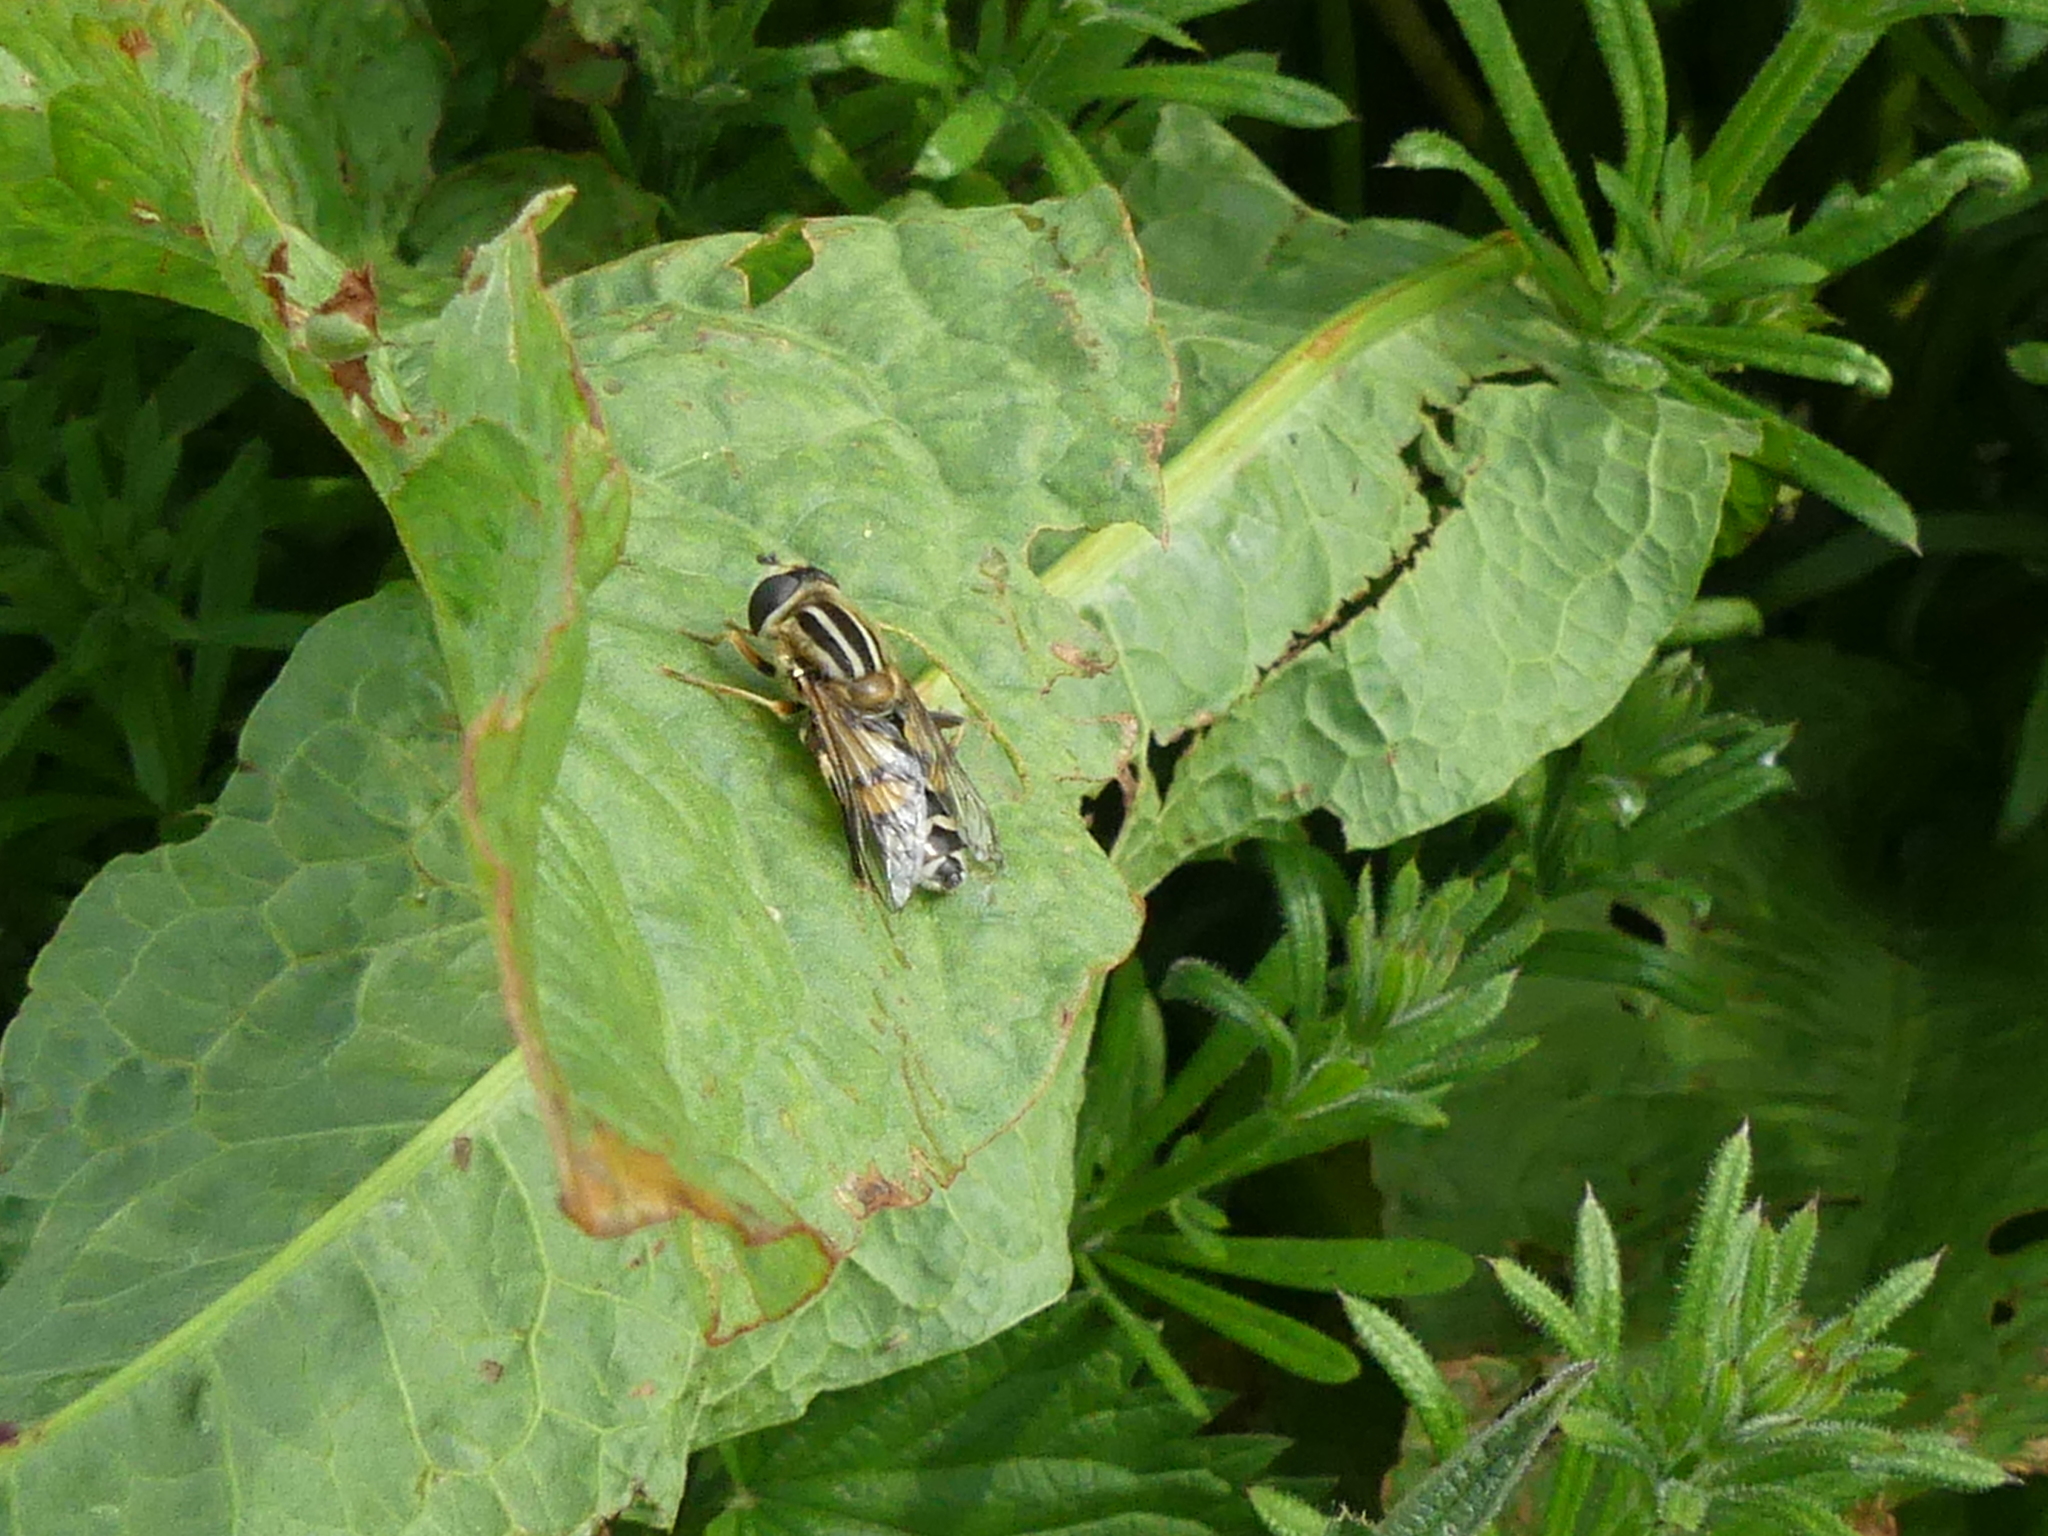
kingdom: Animalia
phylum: Arthropoda
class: Insecta
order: Diptera
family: Syrphidae
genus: Helophilus
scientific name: Helophilus pendulus
